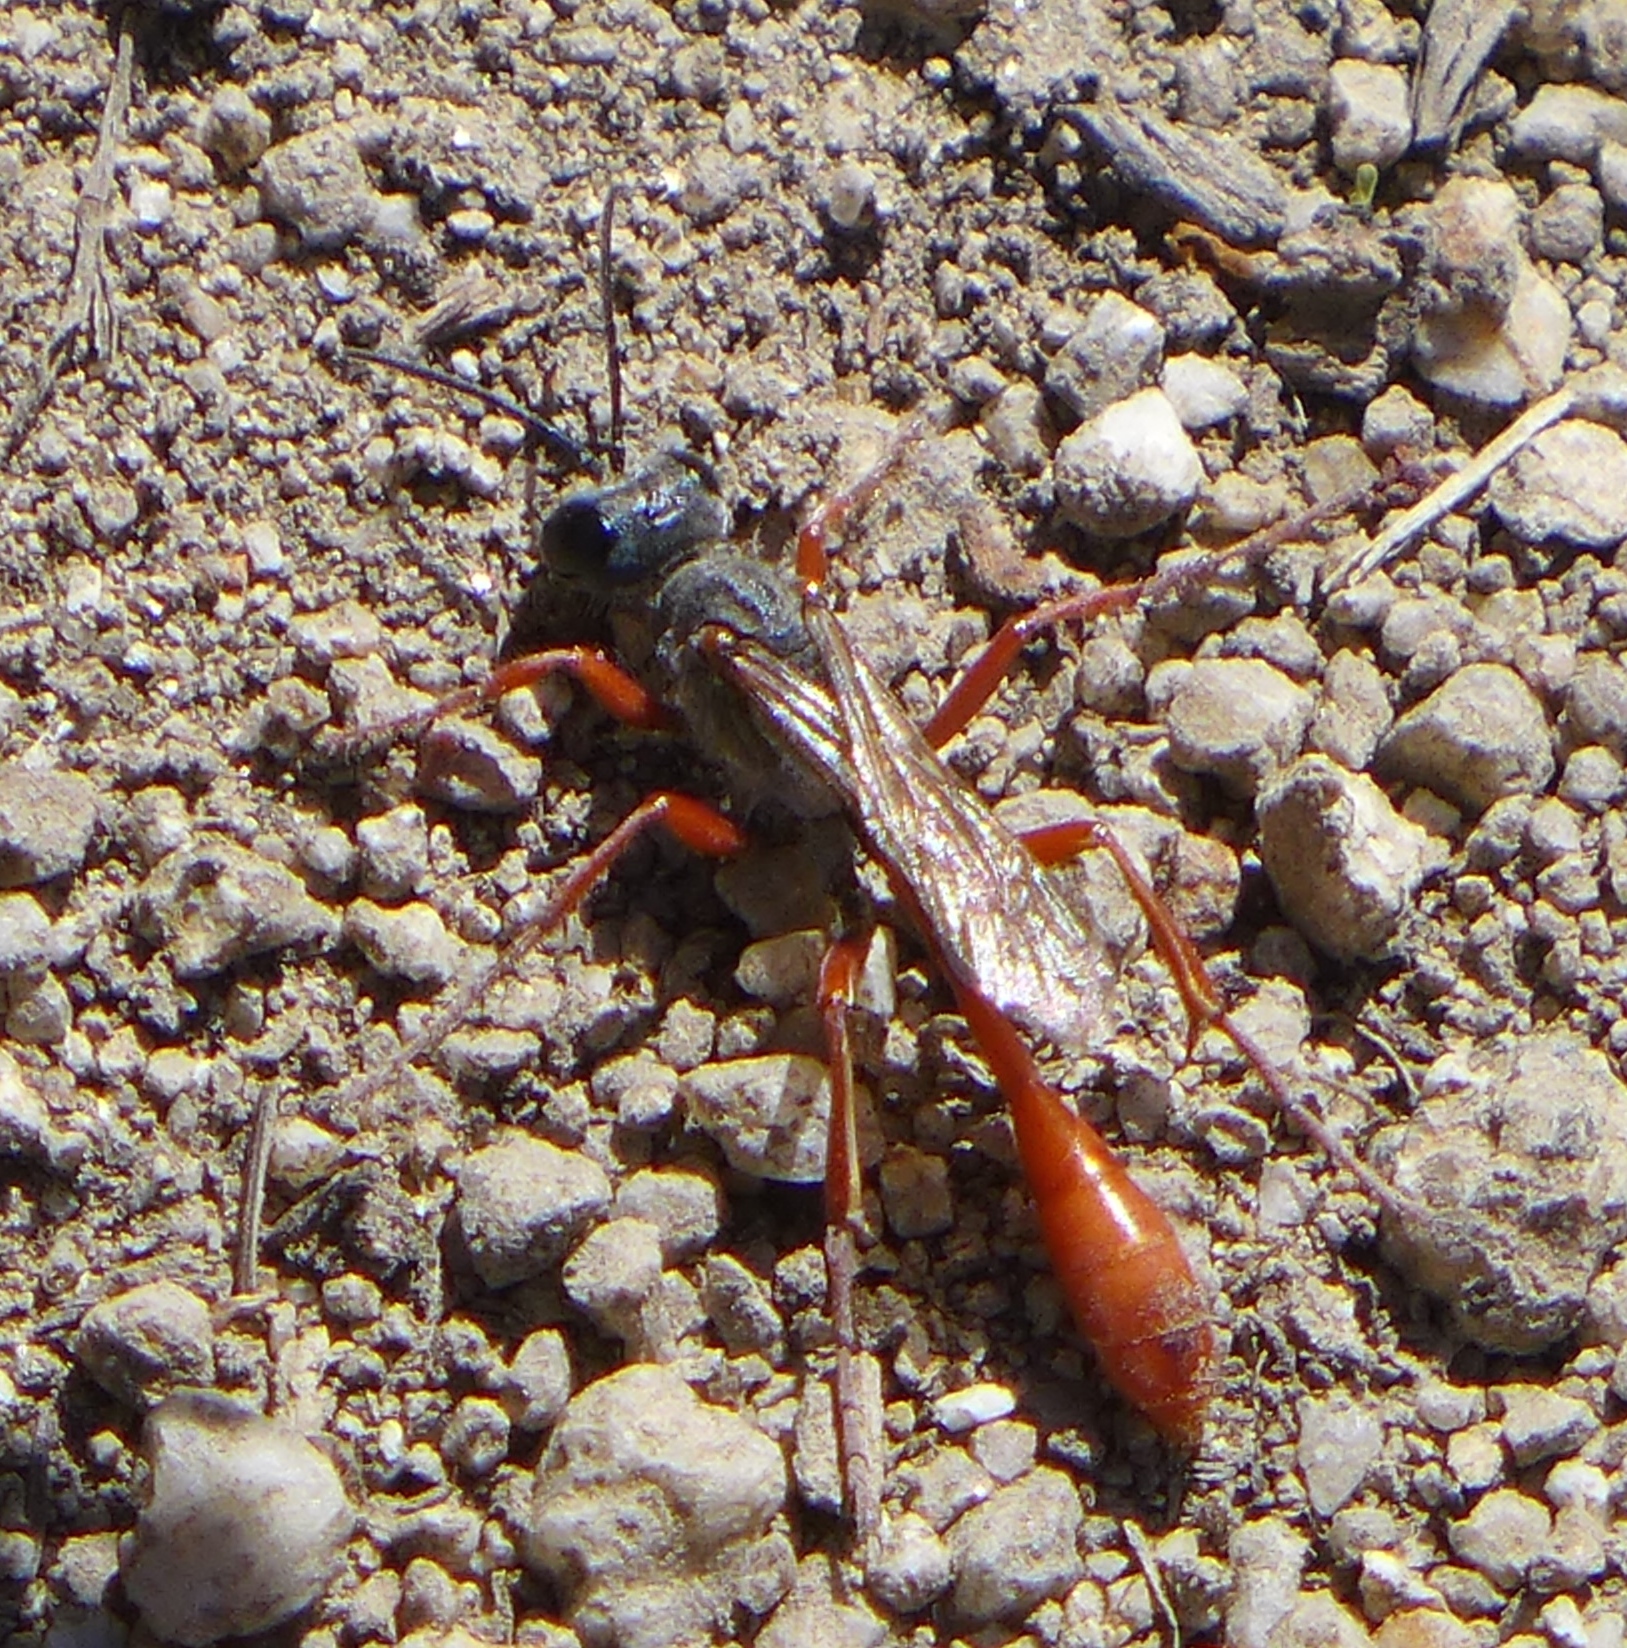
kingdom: Animalia
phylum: Arthropoda
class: Insecta
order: Hymenoptera
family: Sphecidae
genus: Ammophila
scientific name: Ammophila femurrubra
